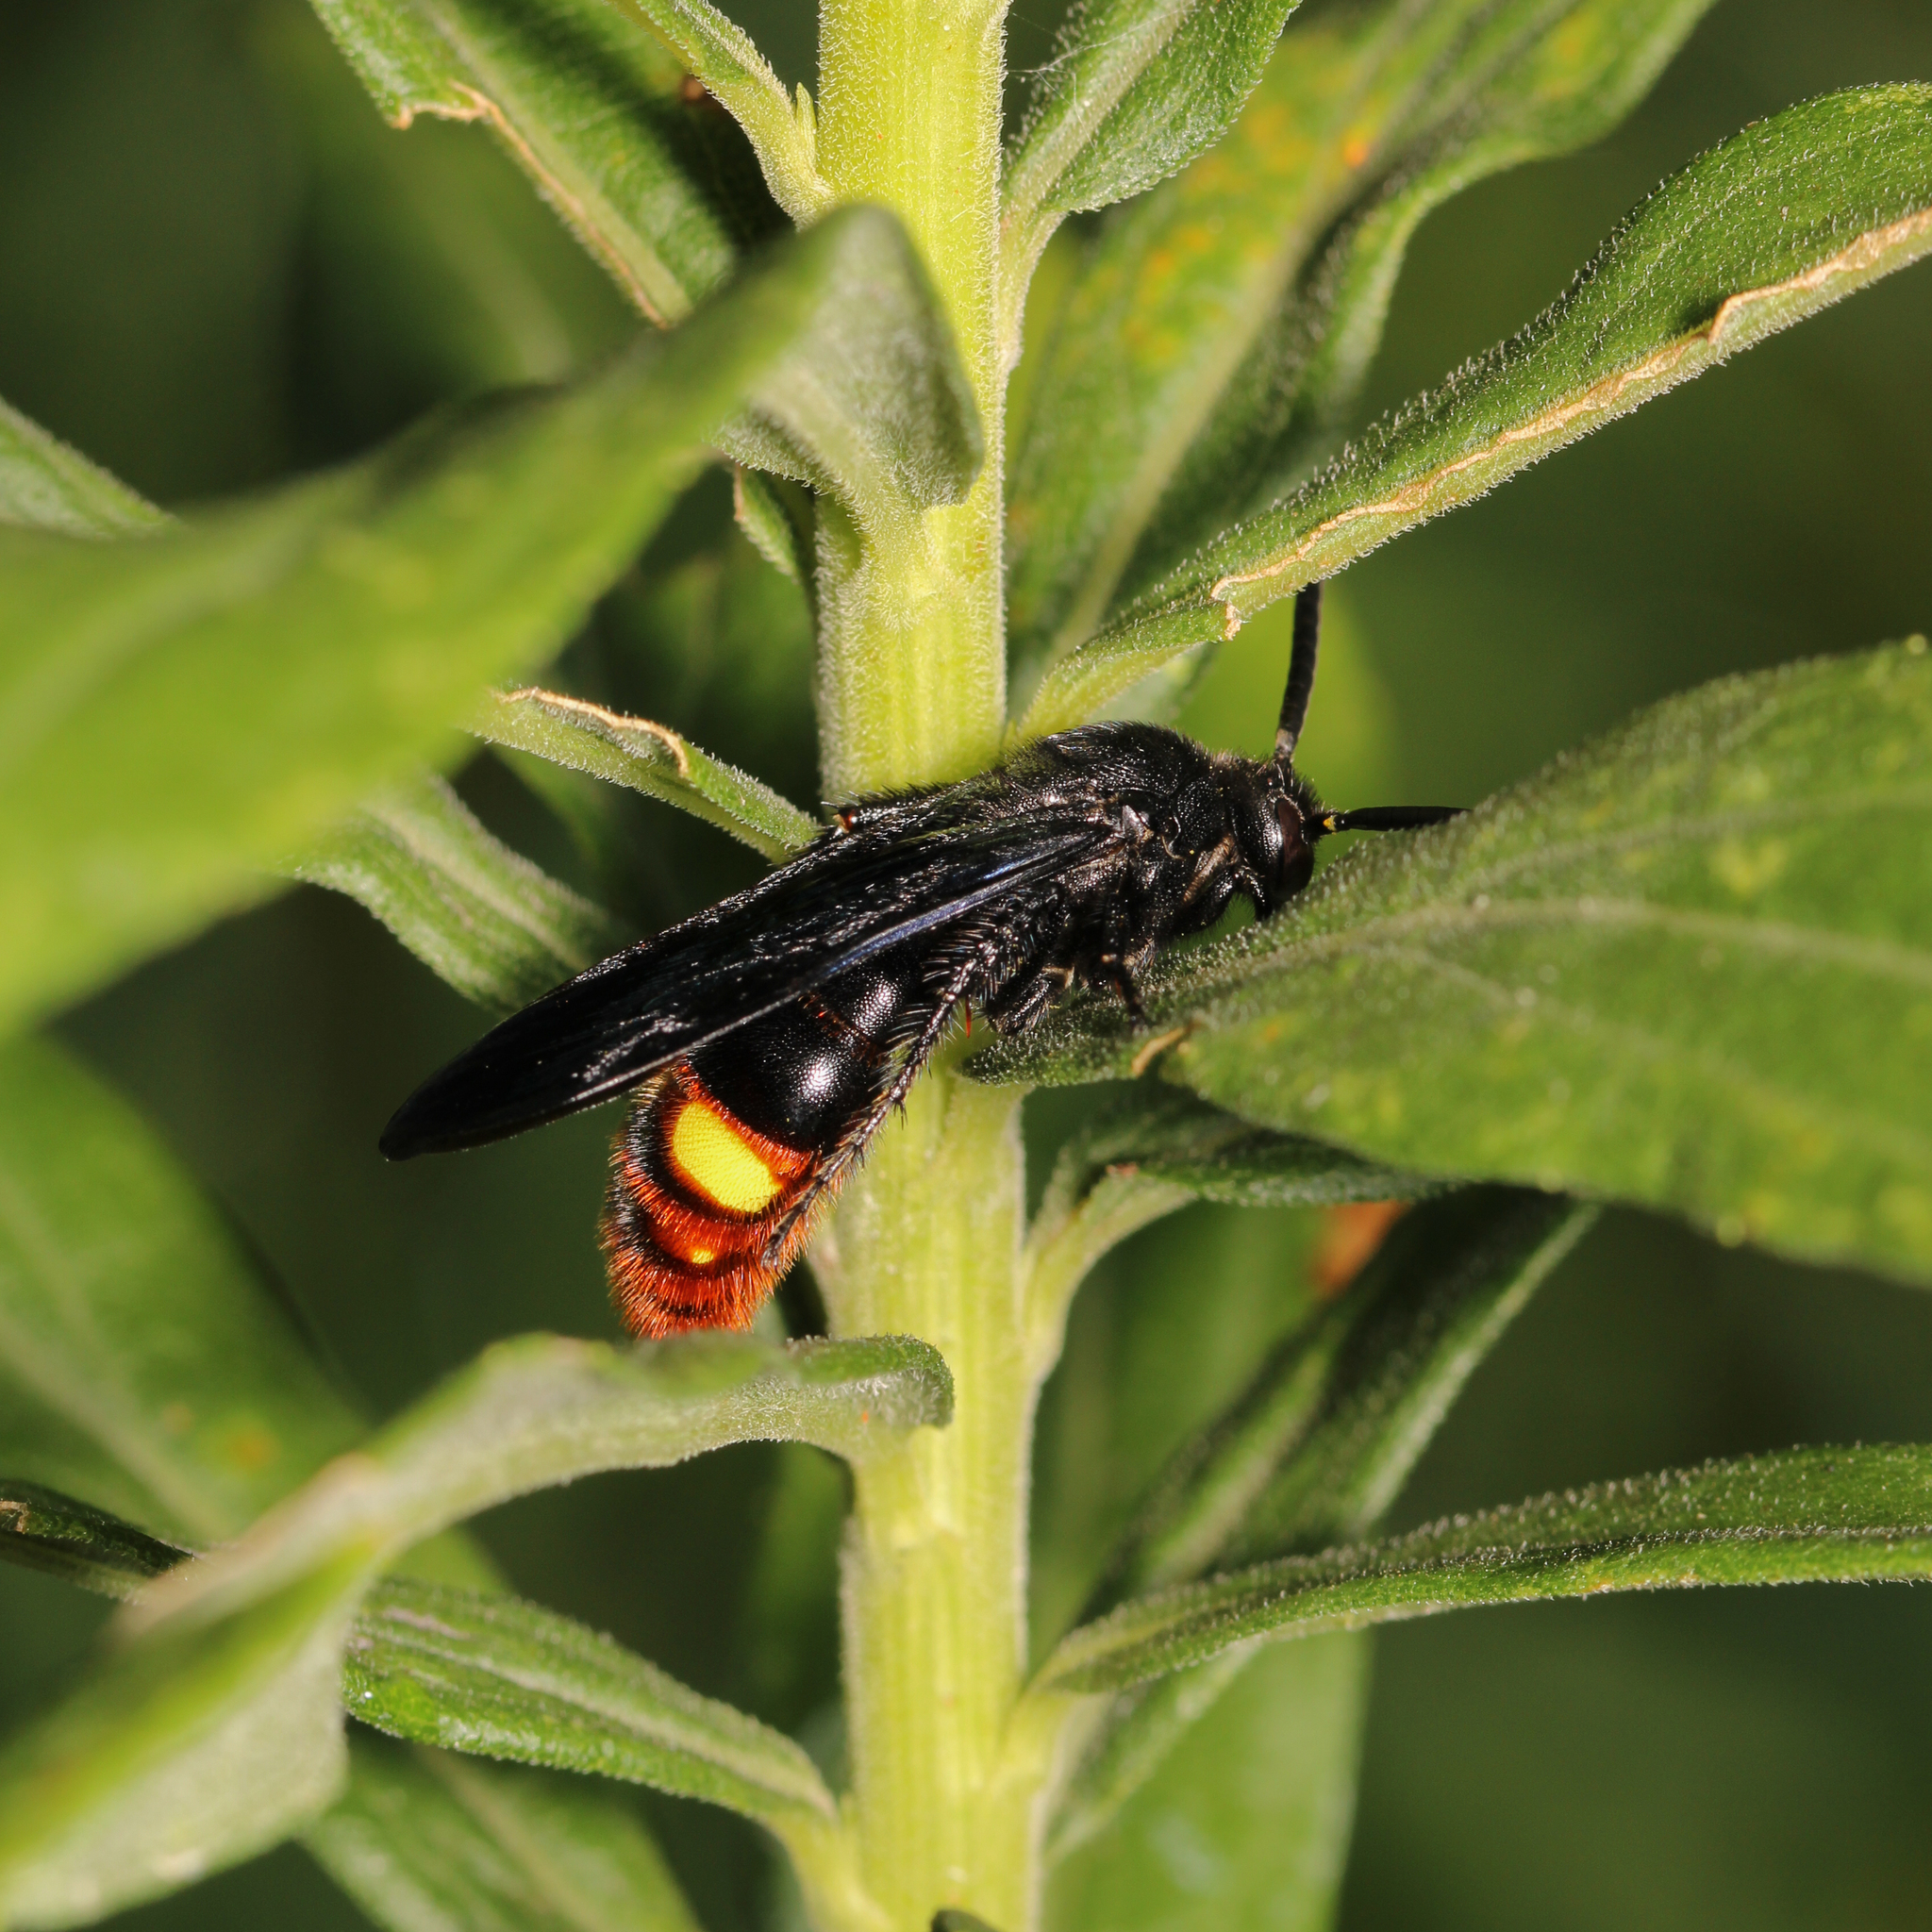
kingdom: Animalia
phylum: Arthropoda
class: Insecta
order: Hymenoptera
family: Scoliidae
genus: Scolia
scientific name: Scolia dubia
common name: Blue-winged scoliid wasp
